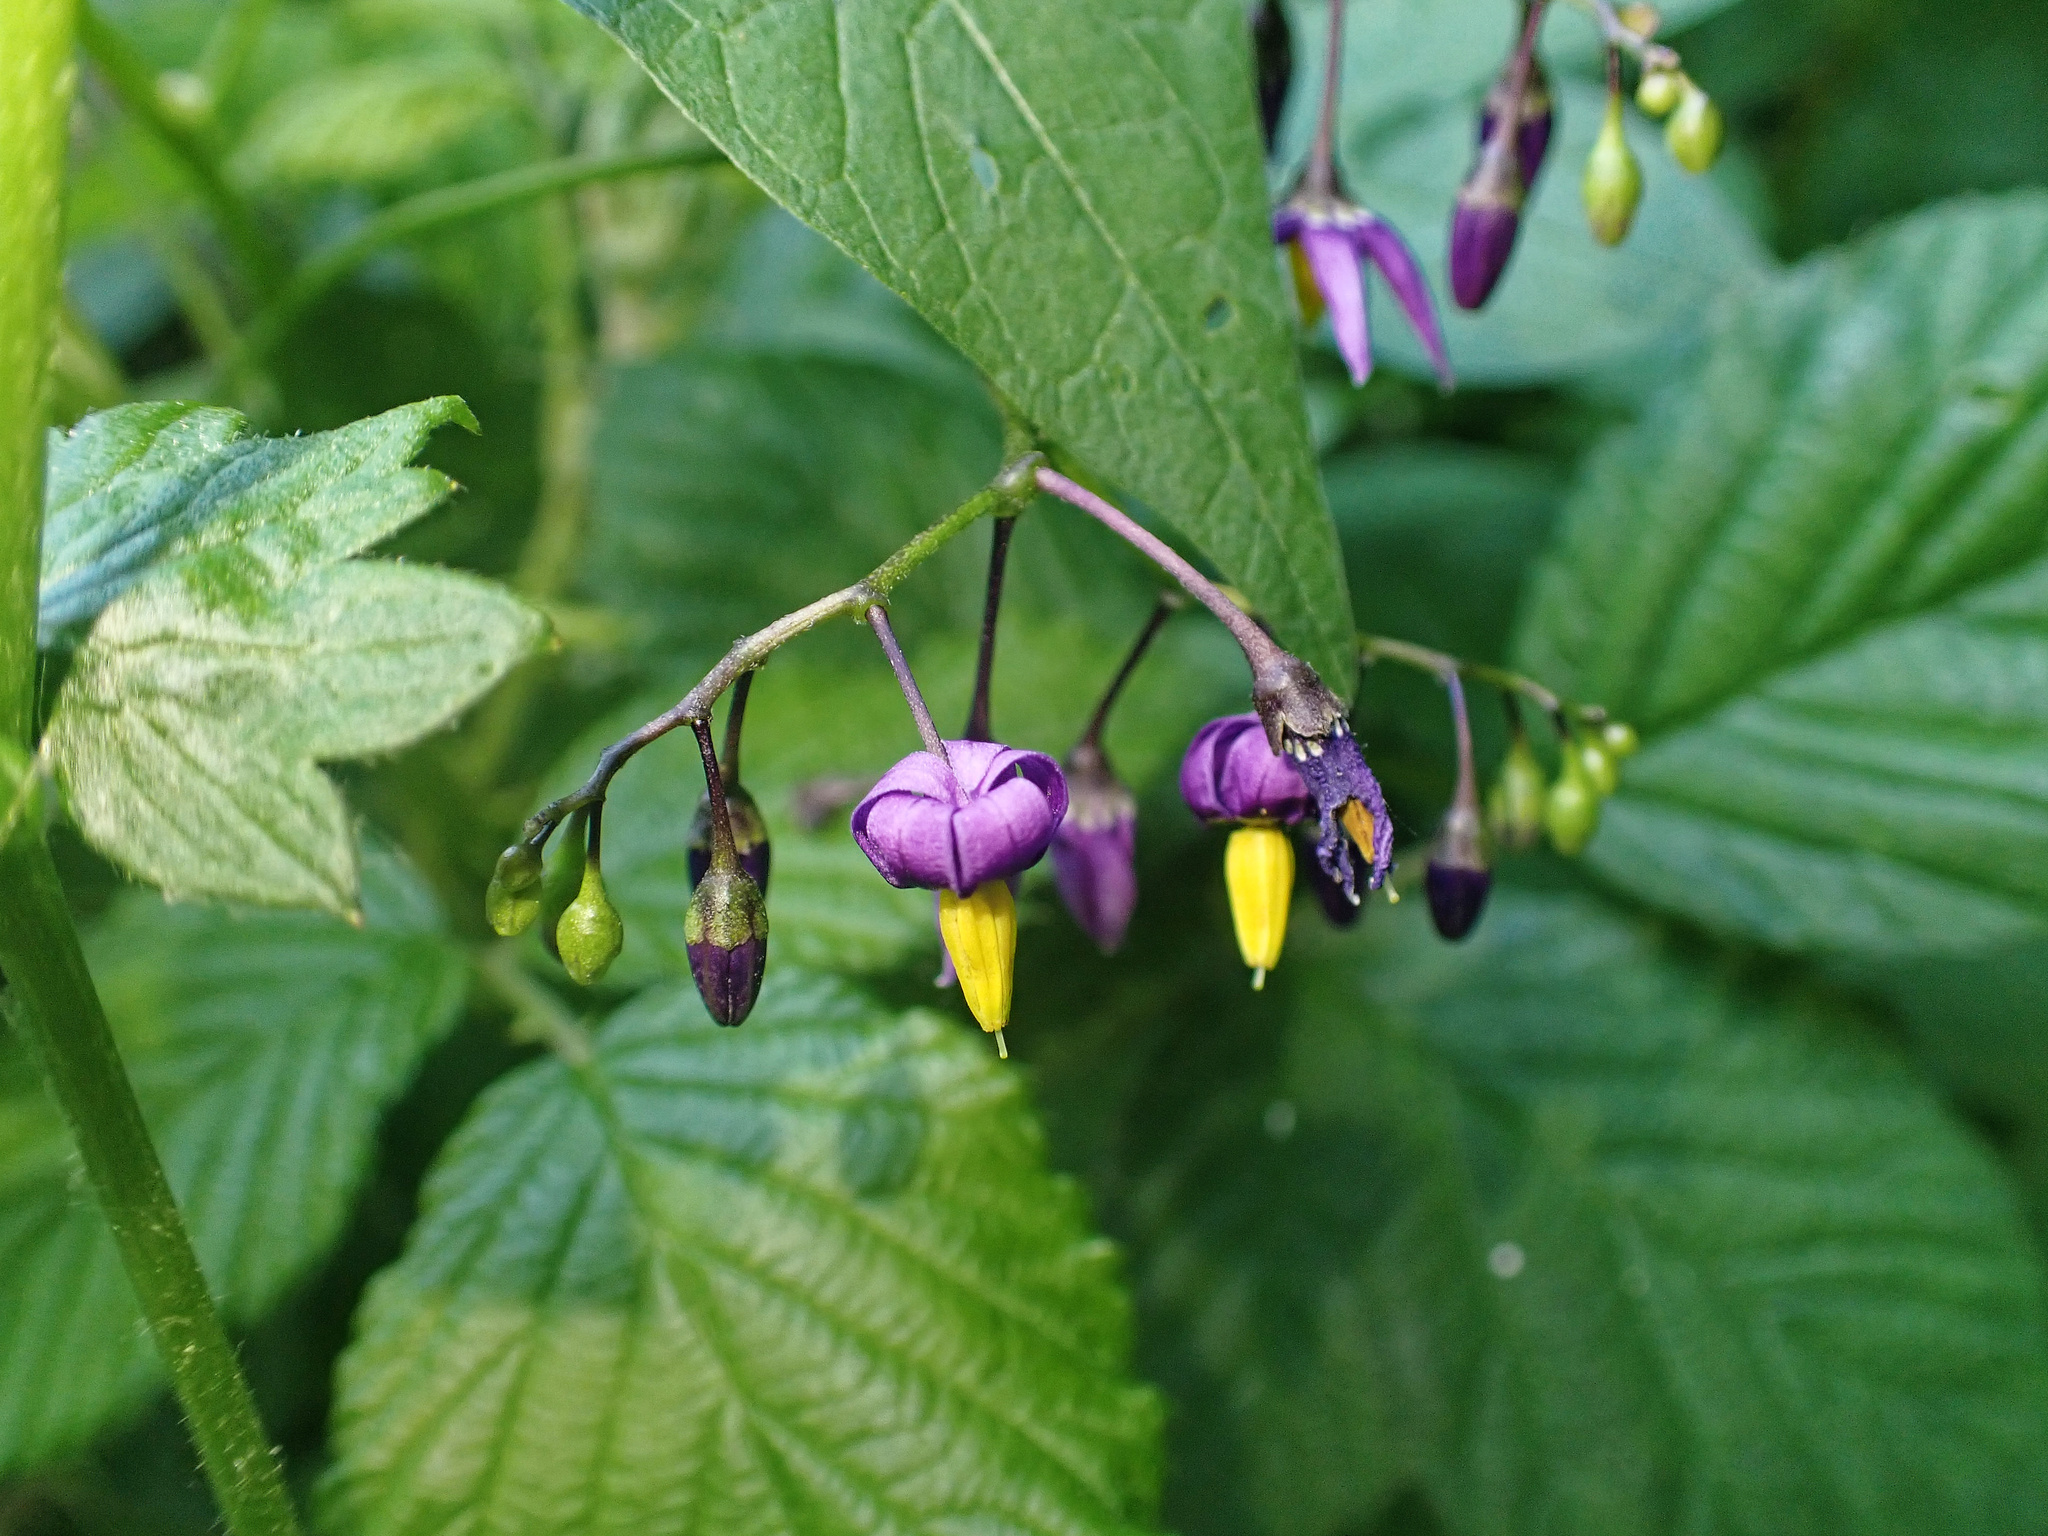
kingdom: Plantae
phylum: Tracheophyta
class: Magnoliopsida
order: Solanales
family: Solanaceae
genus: Solanum
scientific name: Solanum dulcamara
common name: Climbing nightshade
